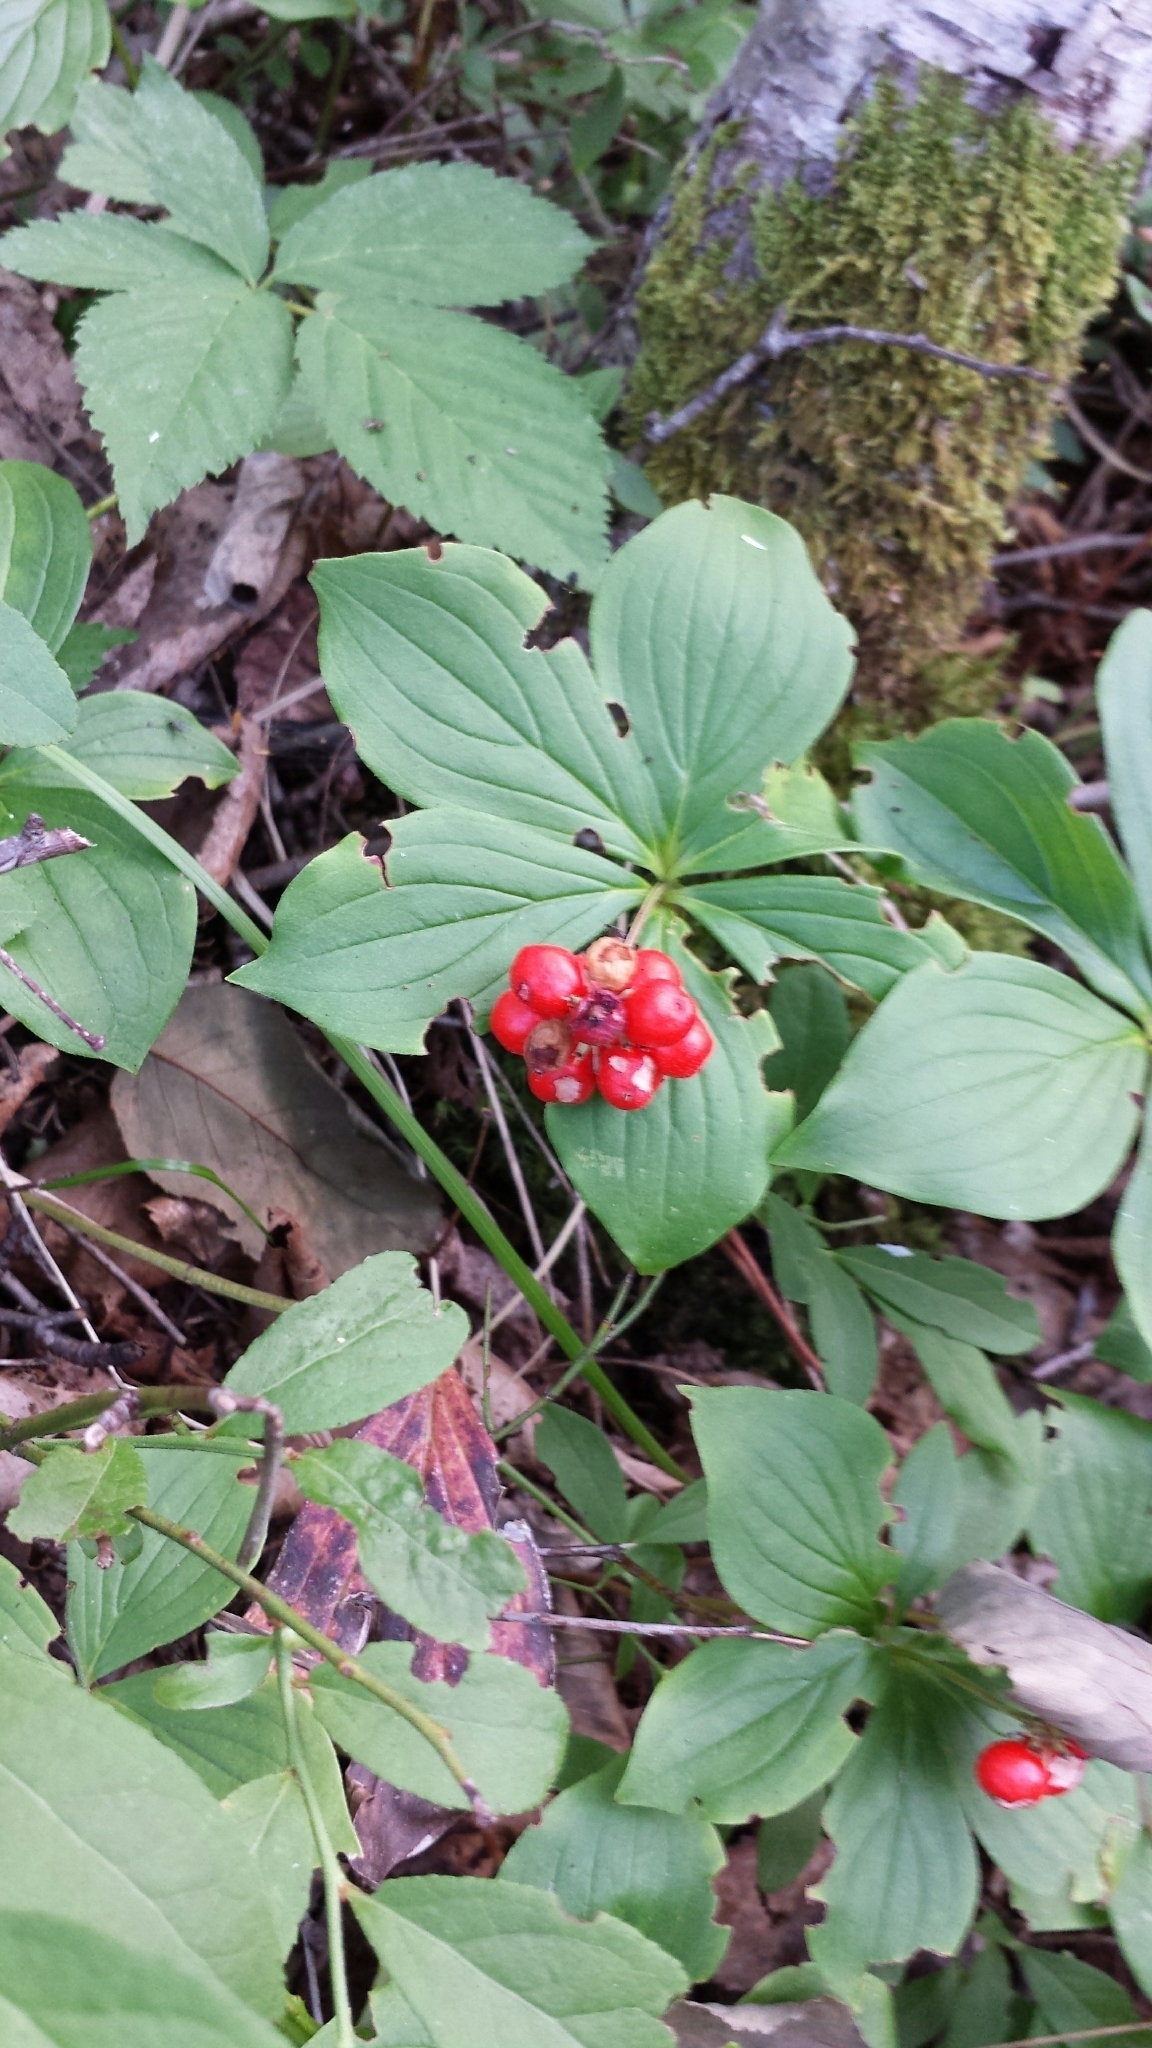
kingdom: Plantae
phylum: Tracheophyta
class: Magnoliopsida
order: Cornales
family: Cornaceae
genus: Cornus
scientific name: Cornus canadensis
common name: Creeping dogwood
